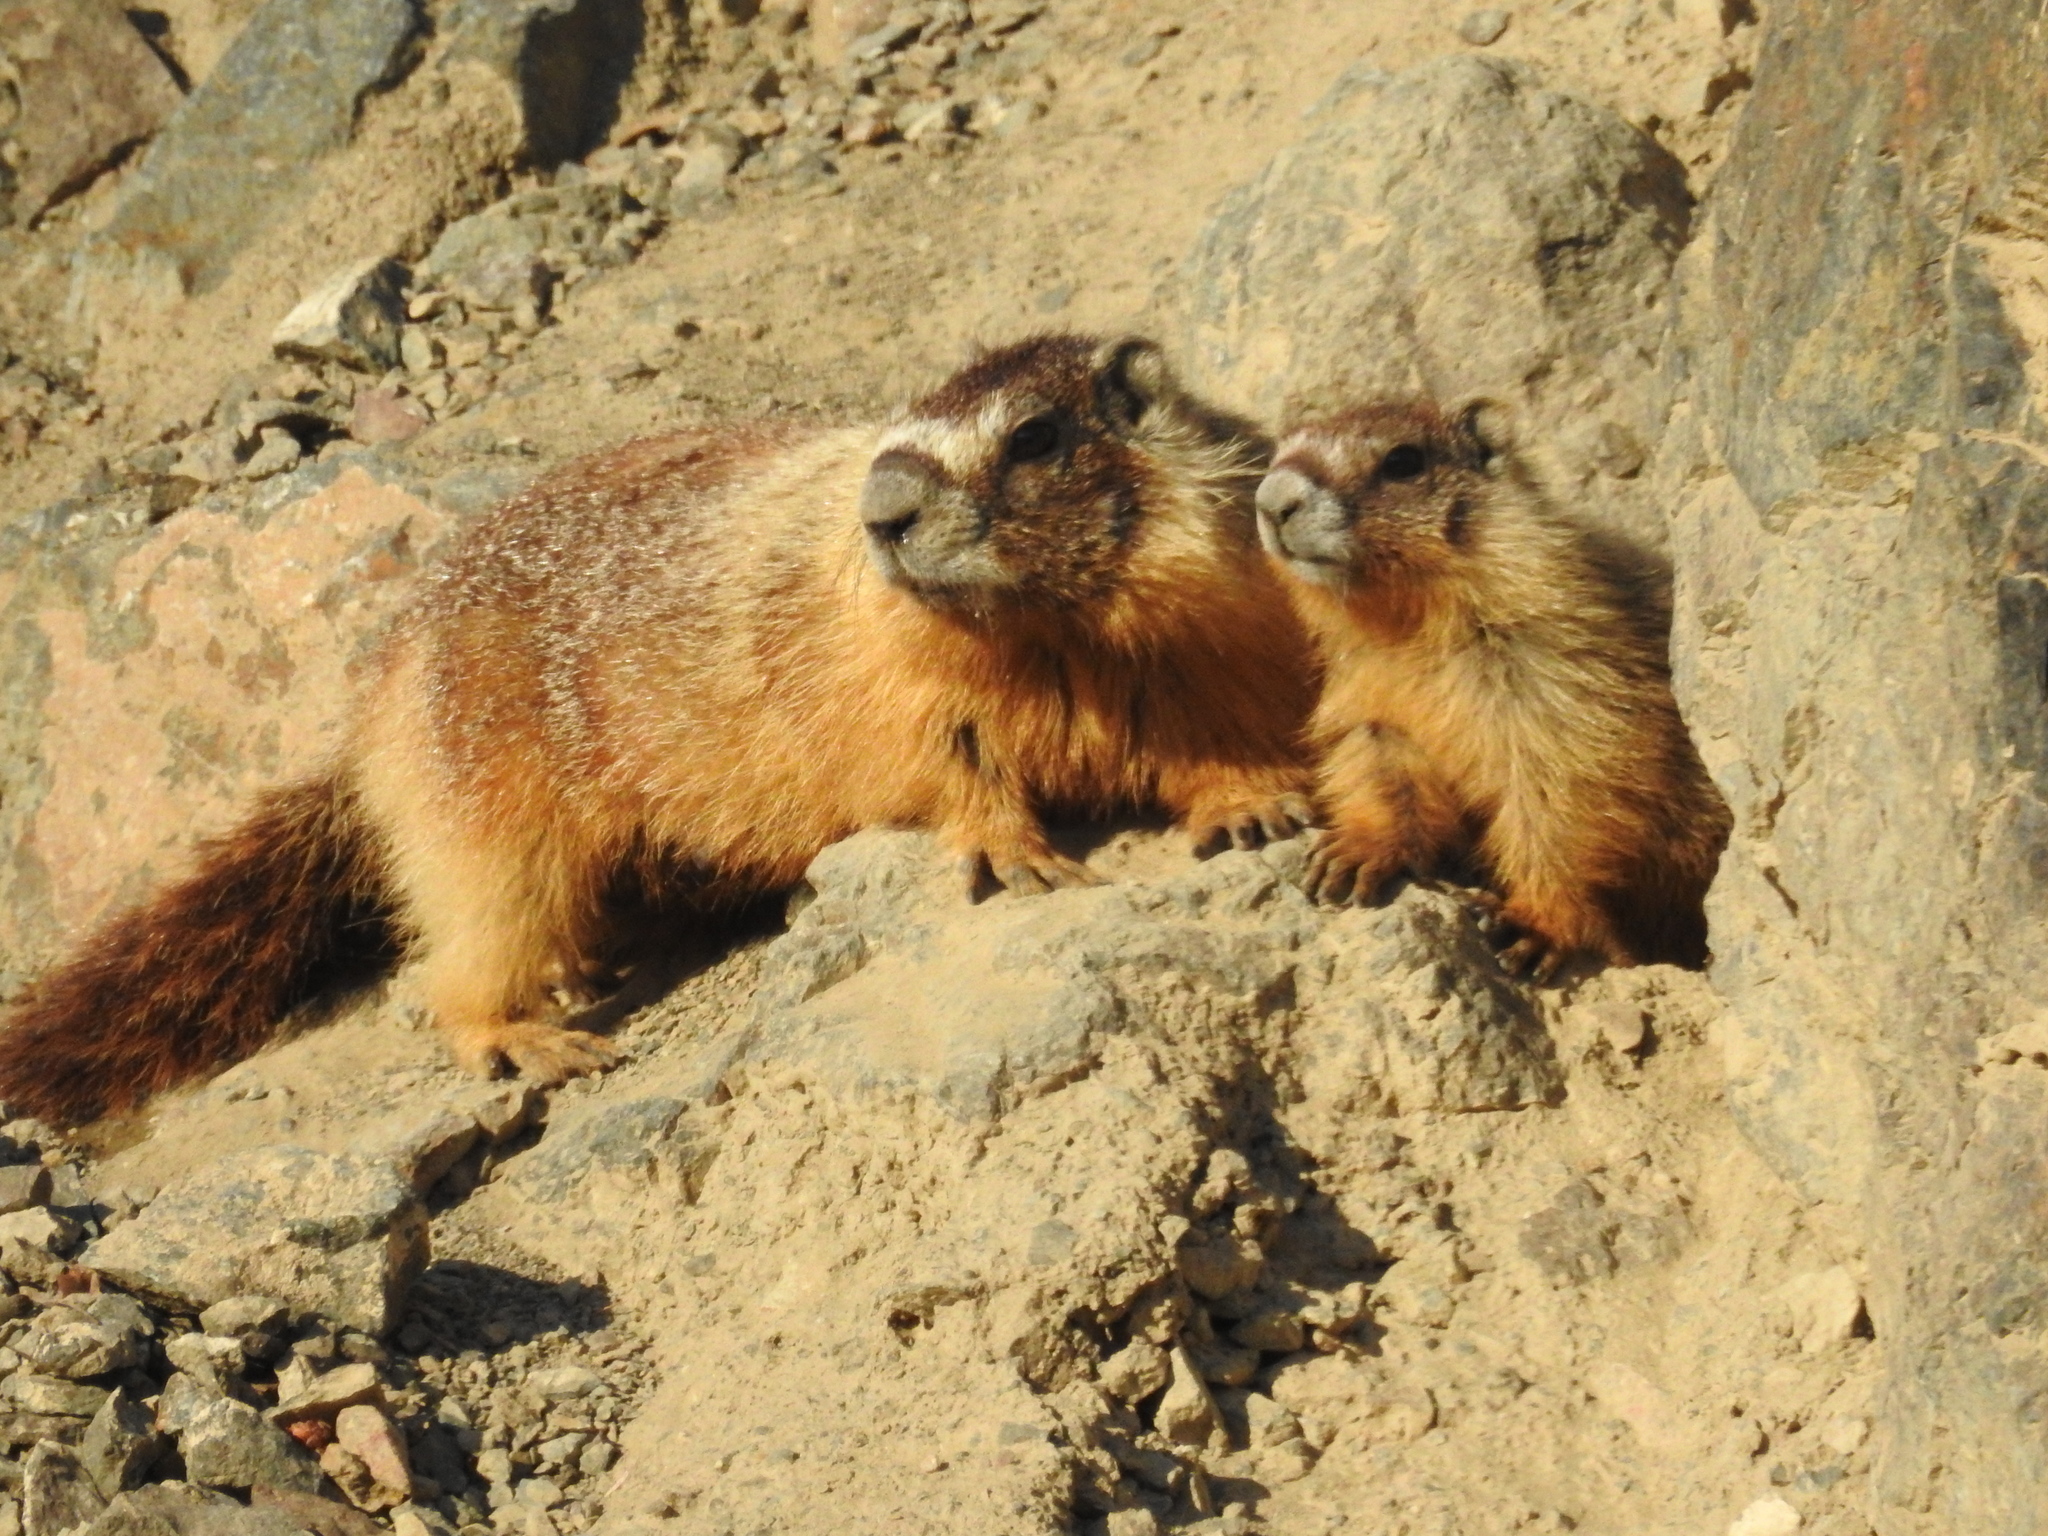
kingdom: Animalia
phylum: Chordata
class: Mammalia
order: Rodentia
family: Sciuridae
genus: Marmota
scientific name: Marmota flaviventris
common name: Yellow-bellied marmot
